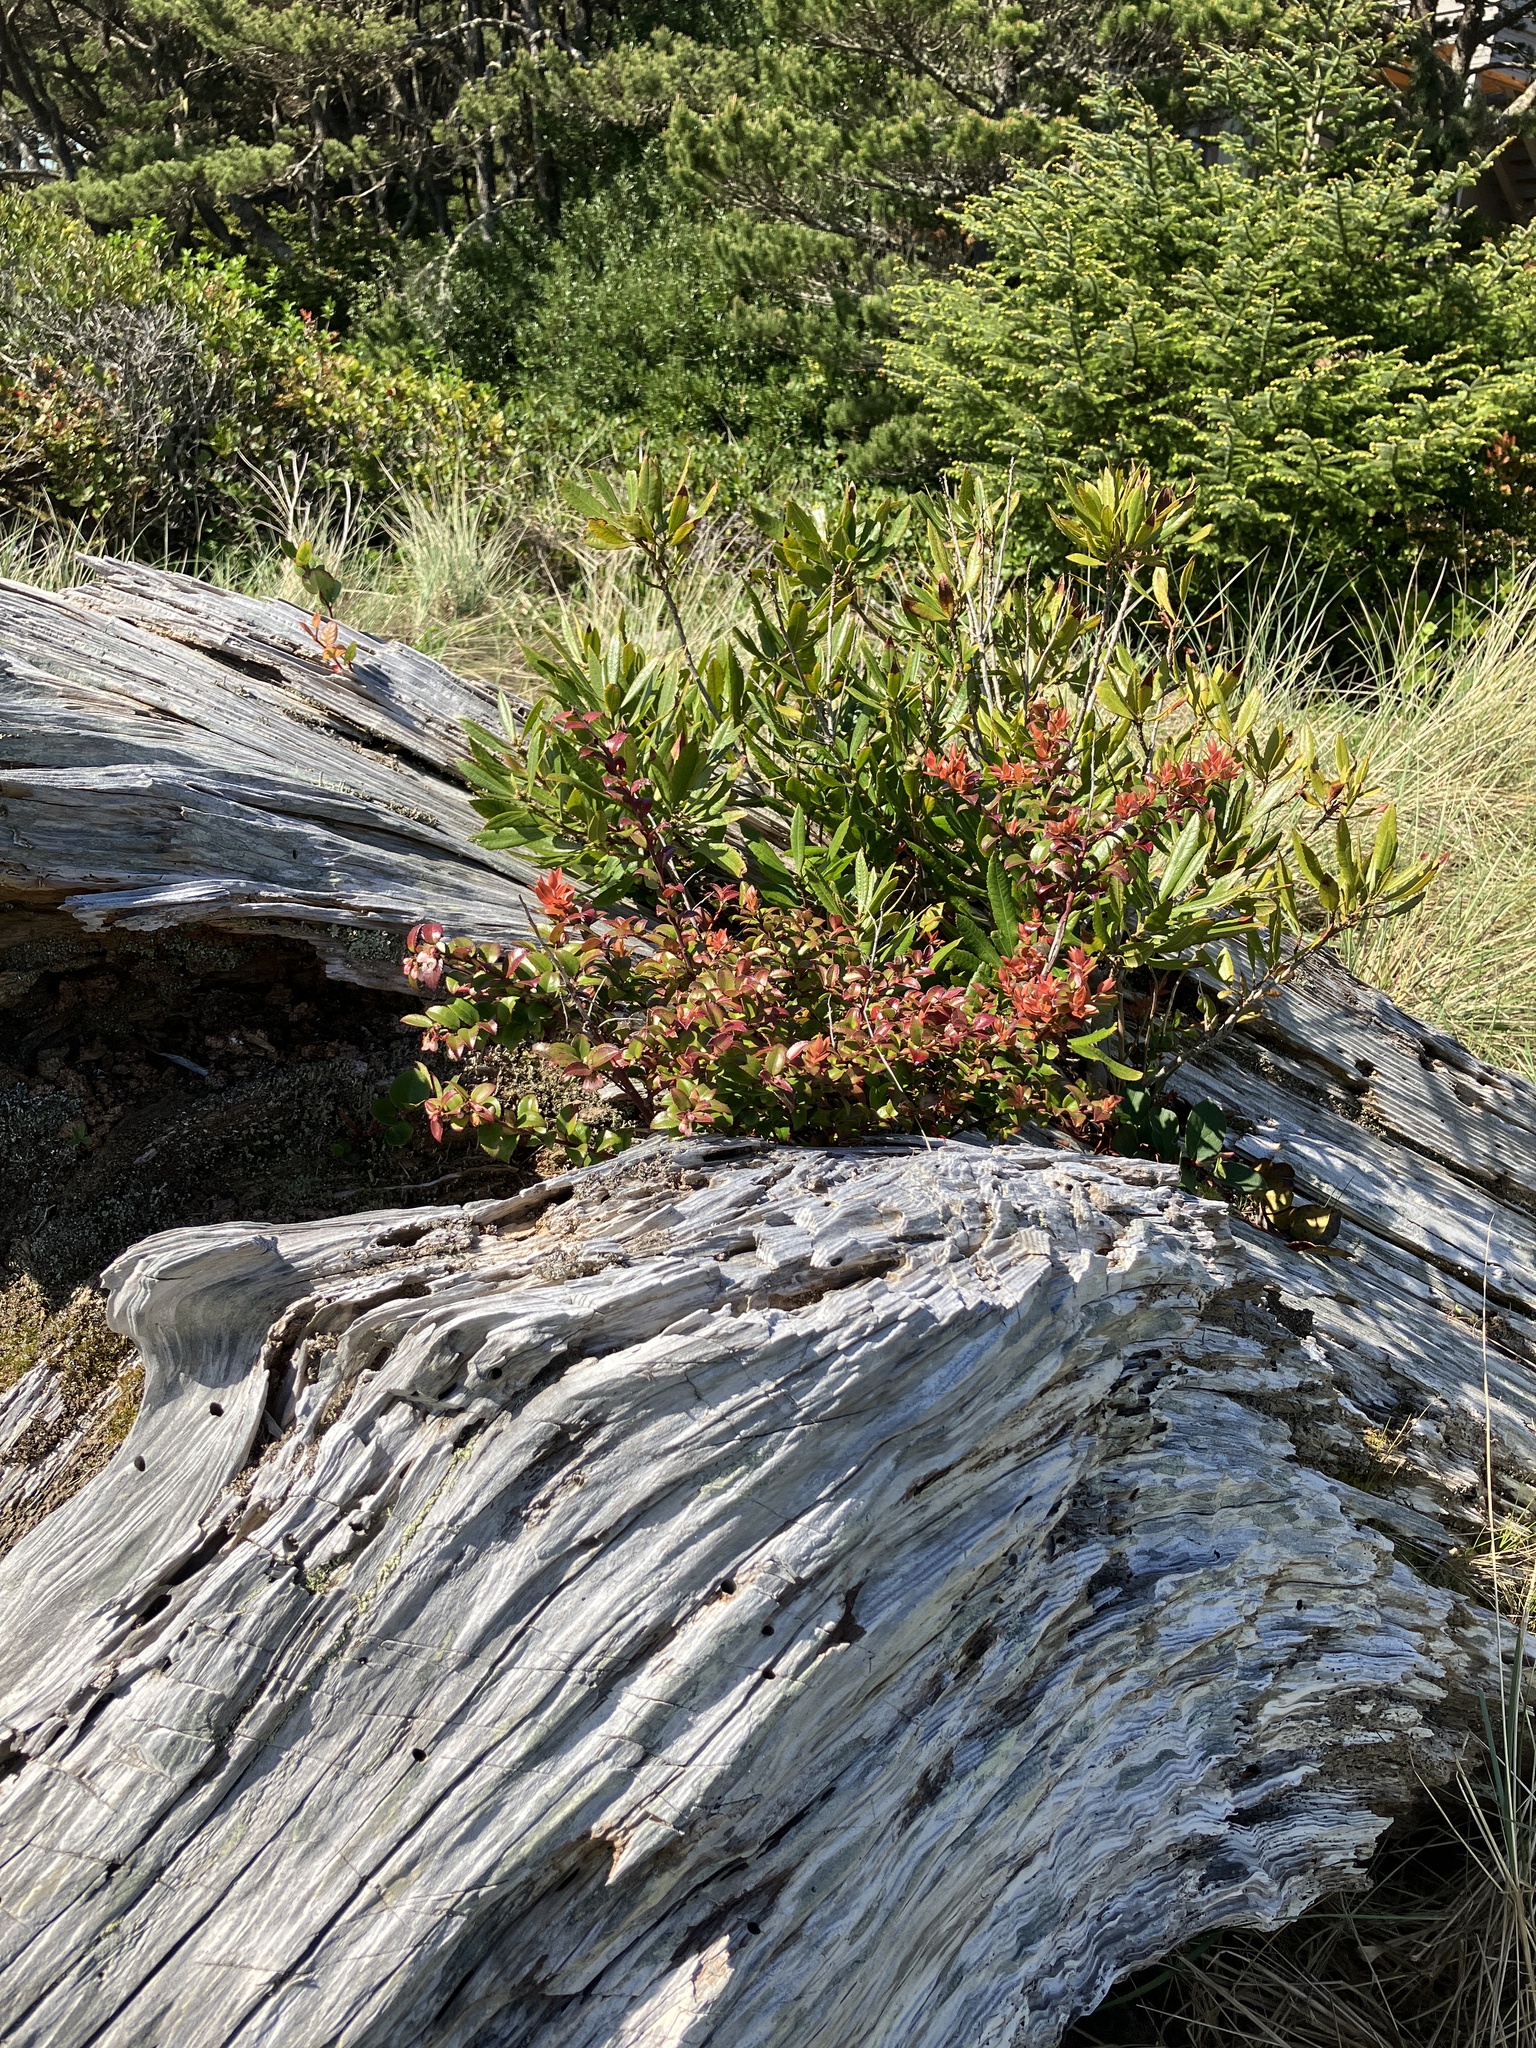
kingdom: Plantae
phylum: Tracheophyta
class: Magnoliopsida
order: Ericales
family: Ericaceae
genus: Vaccinium
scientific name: Vaccinium ovatum
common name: California-huckleberry
